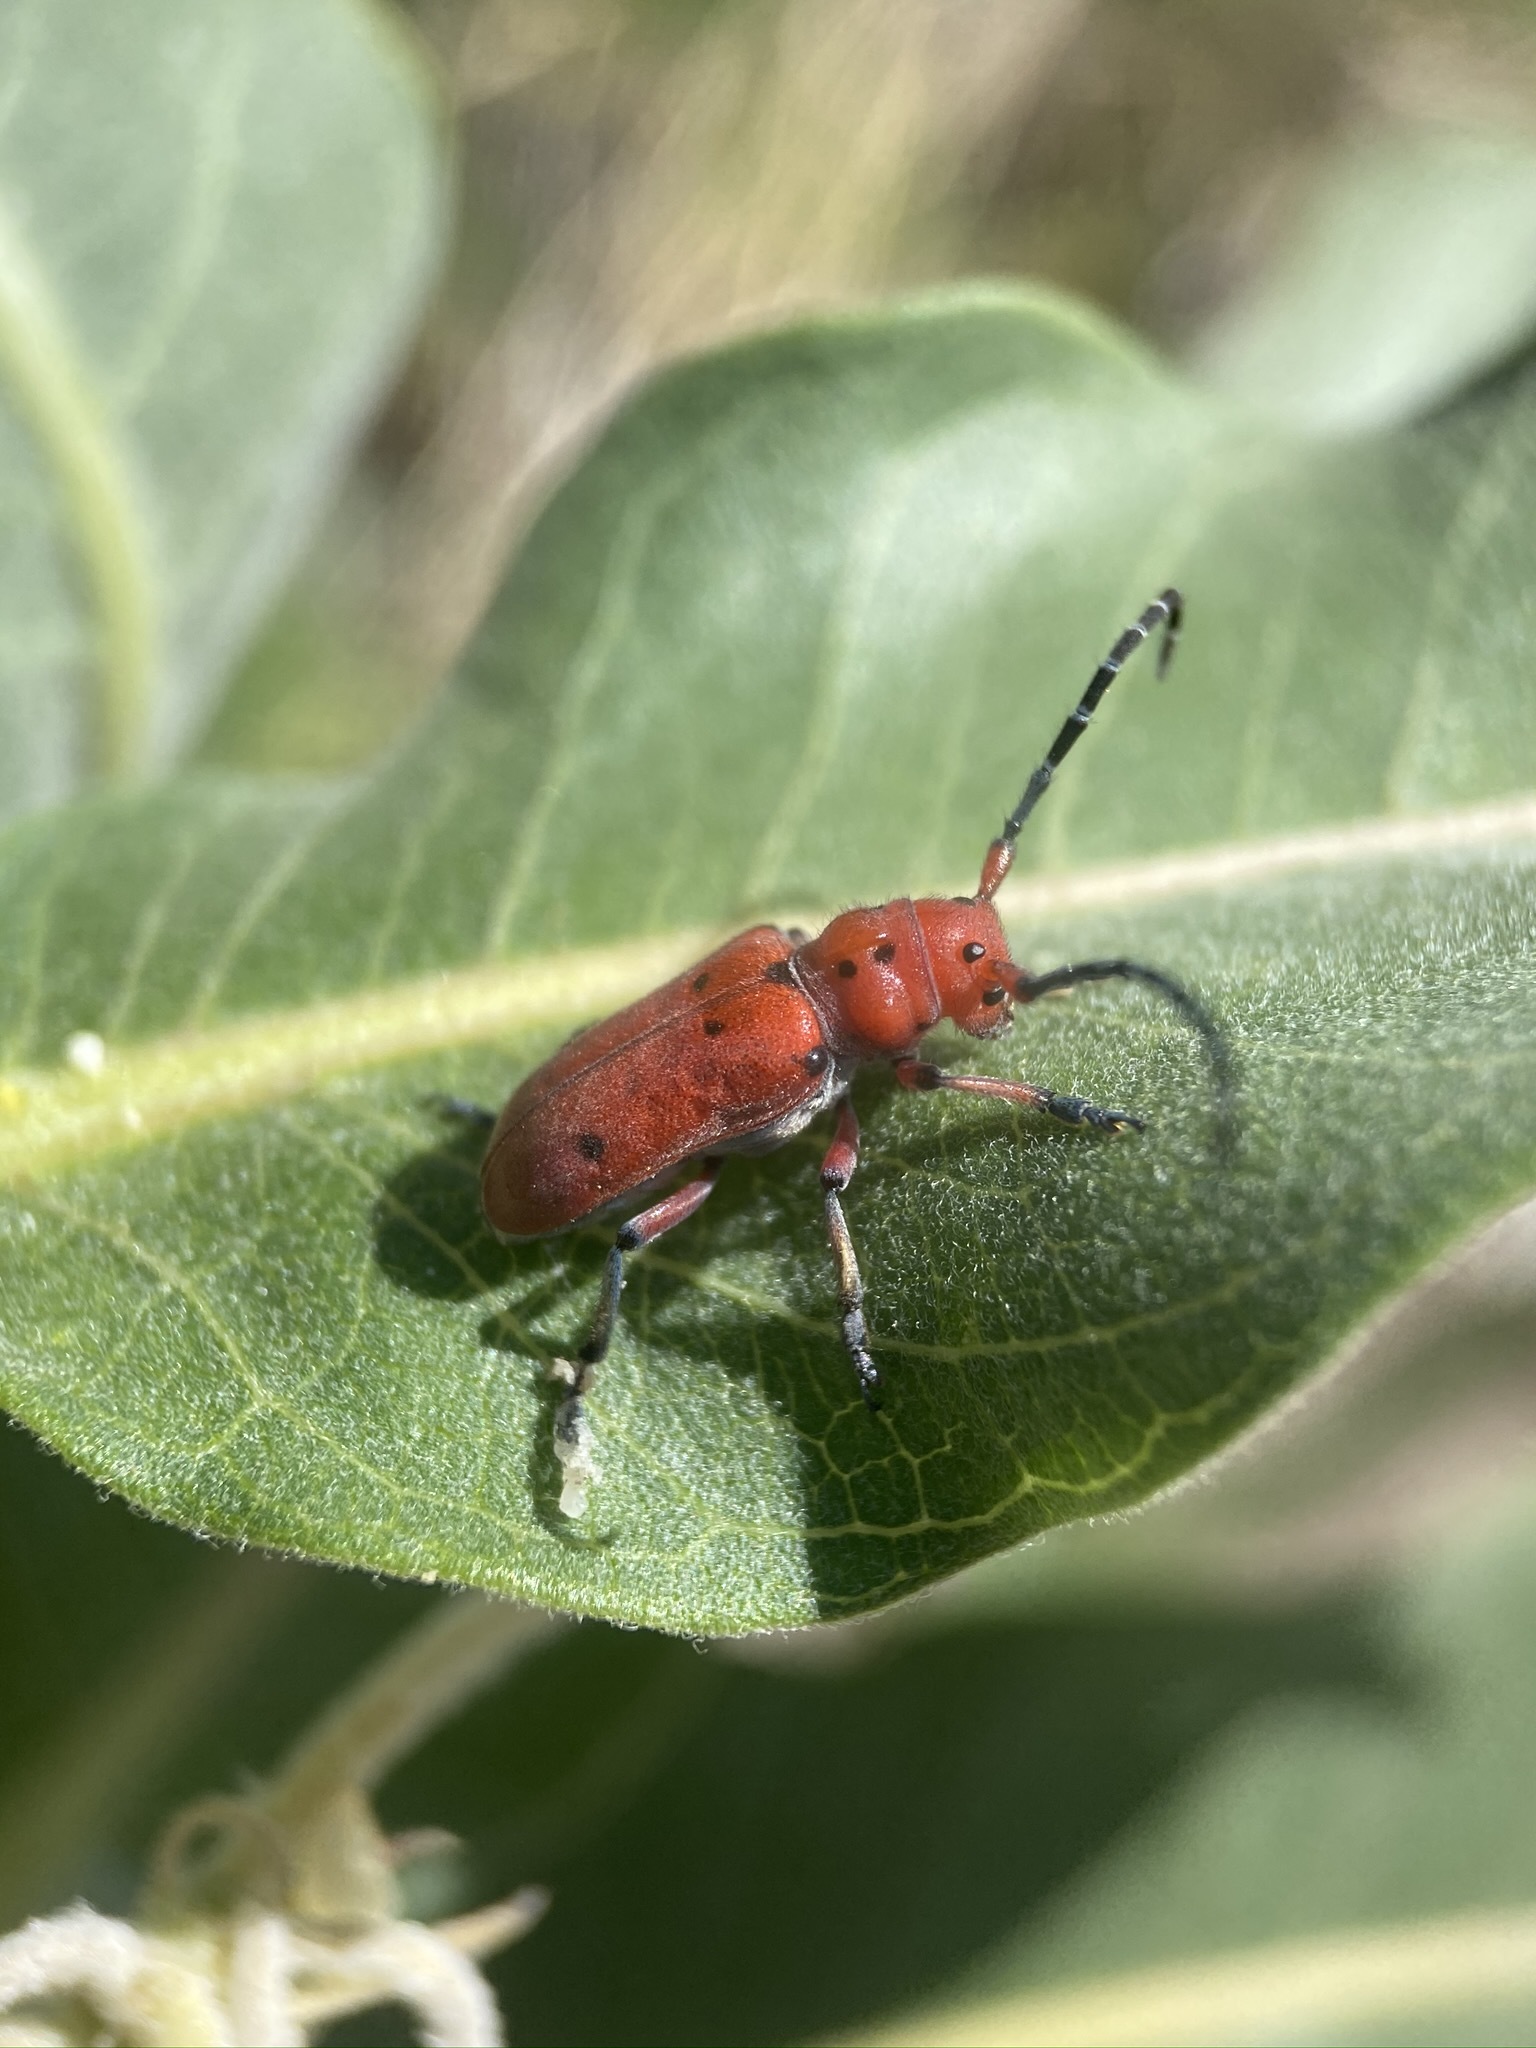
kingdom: Animalia
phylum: Arthropoda
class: Insecta
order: Coleoptera
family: Cerambycidae
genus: Tetraopes
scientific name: Tetraopes femoratus
